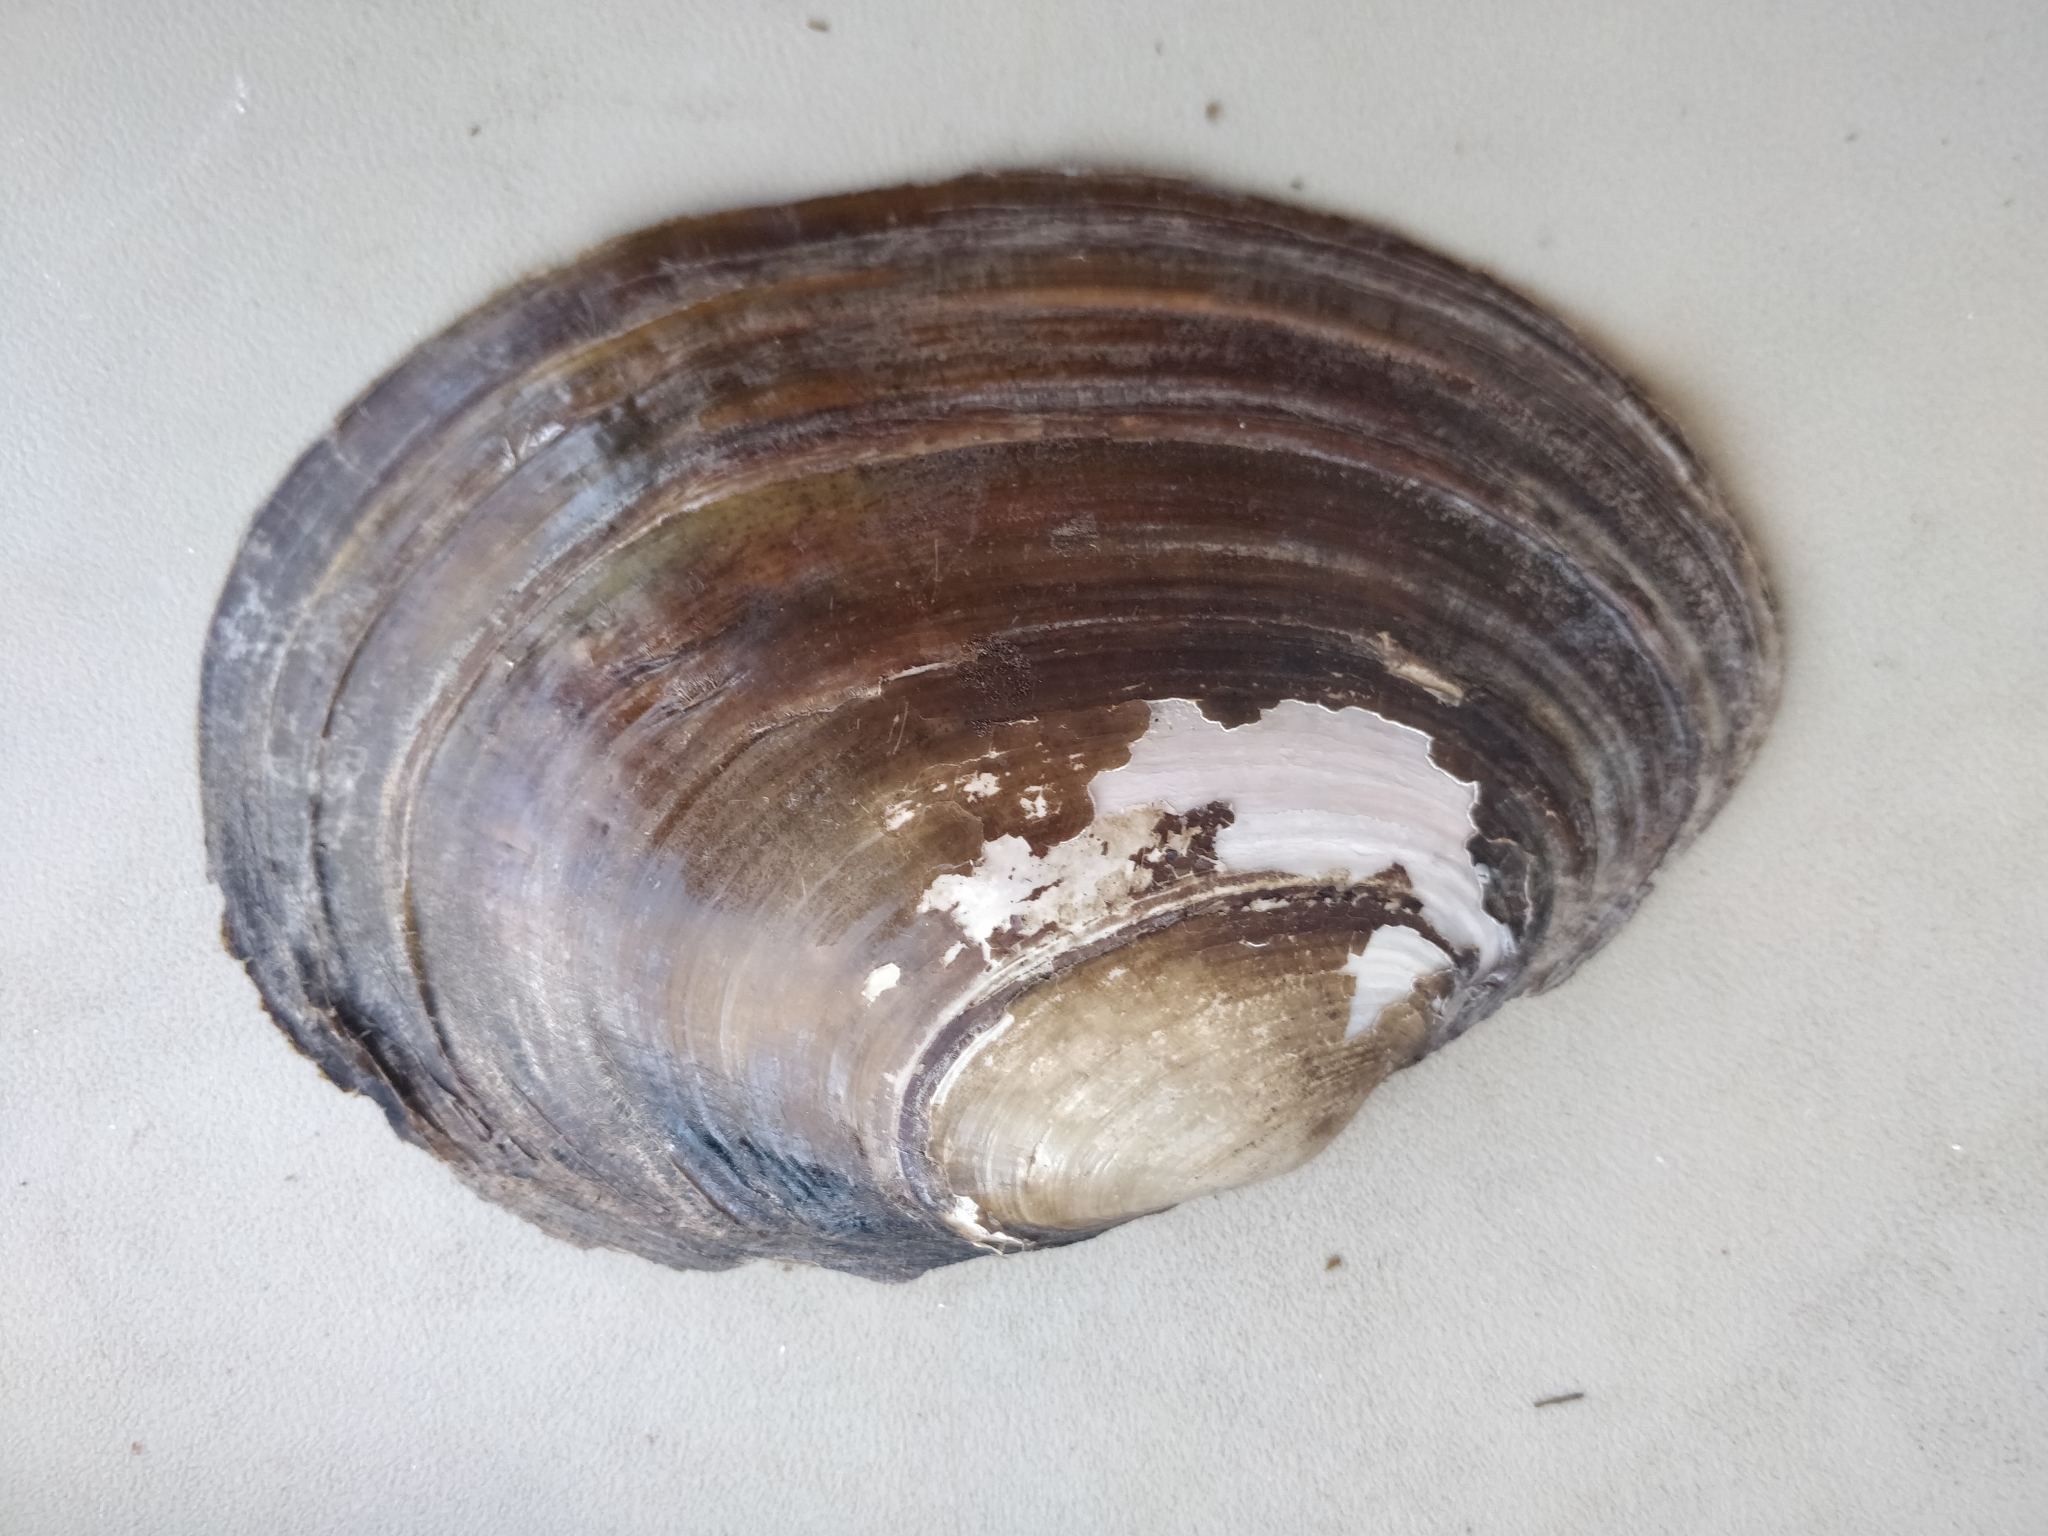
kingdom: Animalia
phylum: Mollusca
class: Bivalvia
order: Unionida
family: Unionidae
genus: Potamilus
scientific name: Potamilus ohiensis
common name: Pink papershell
